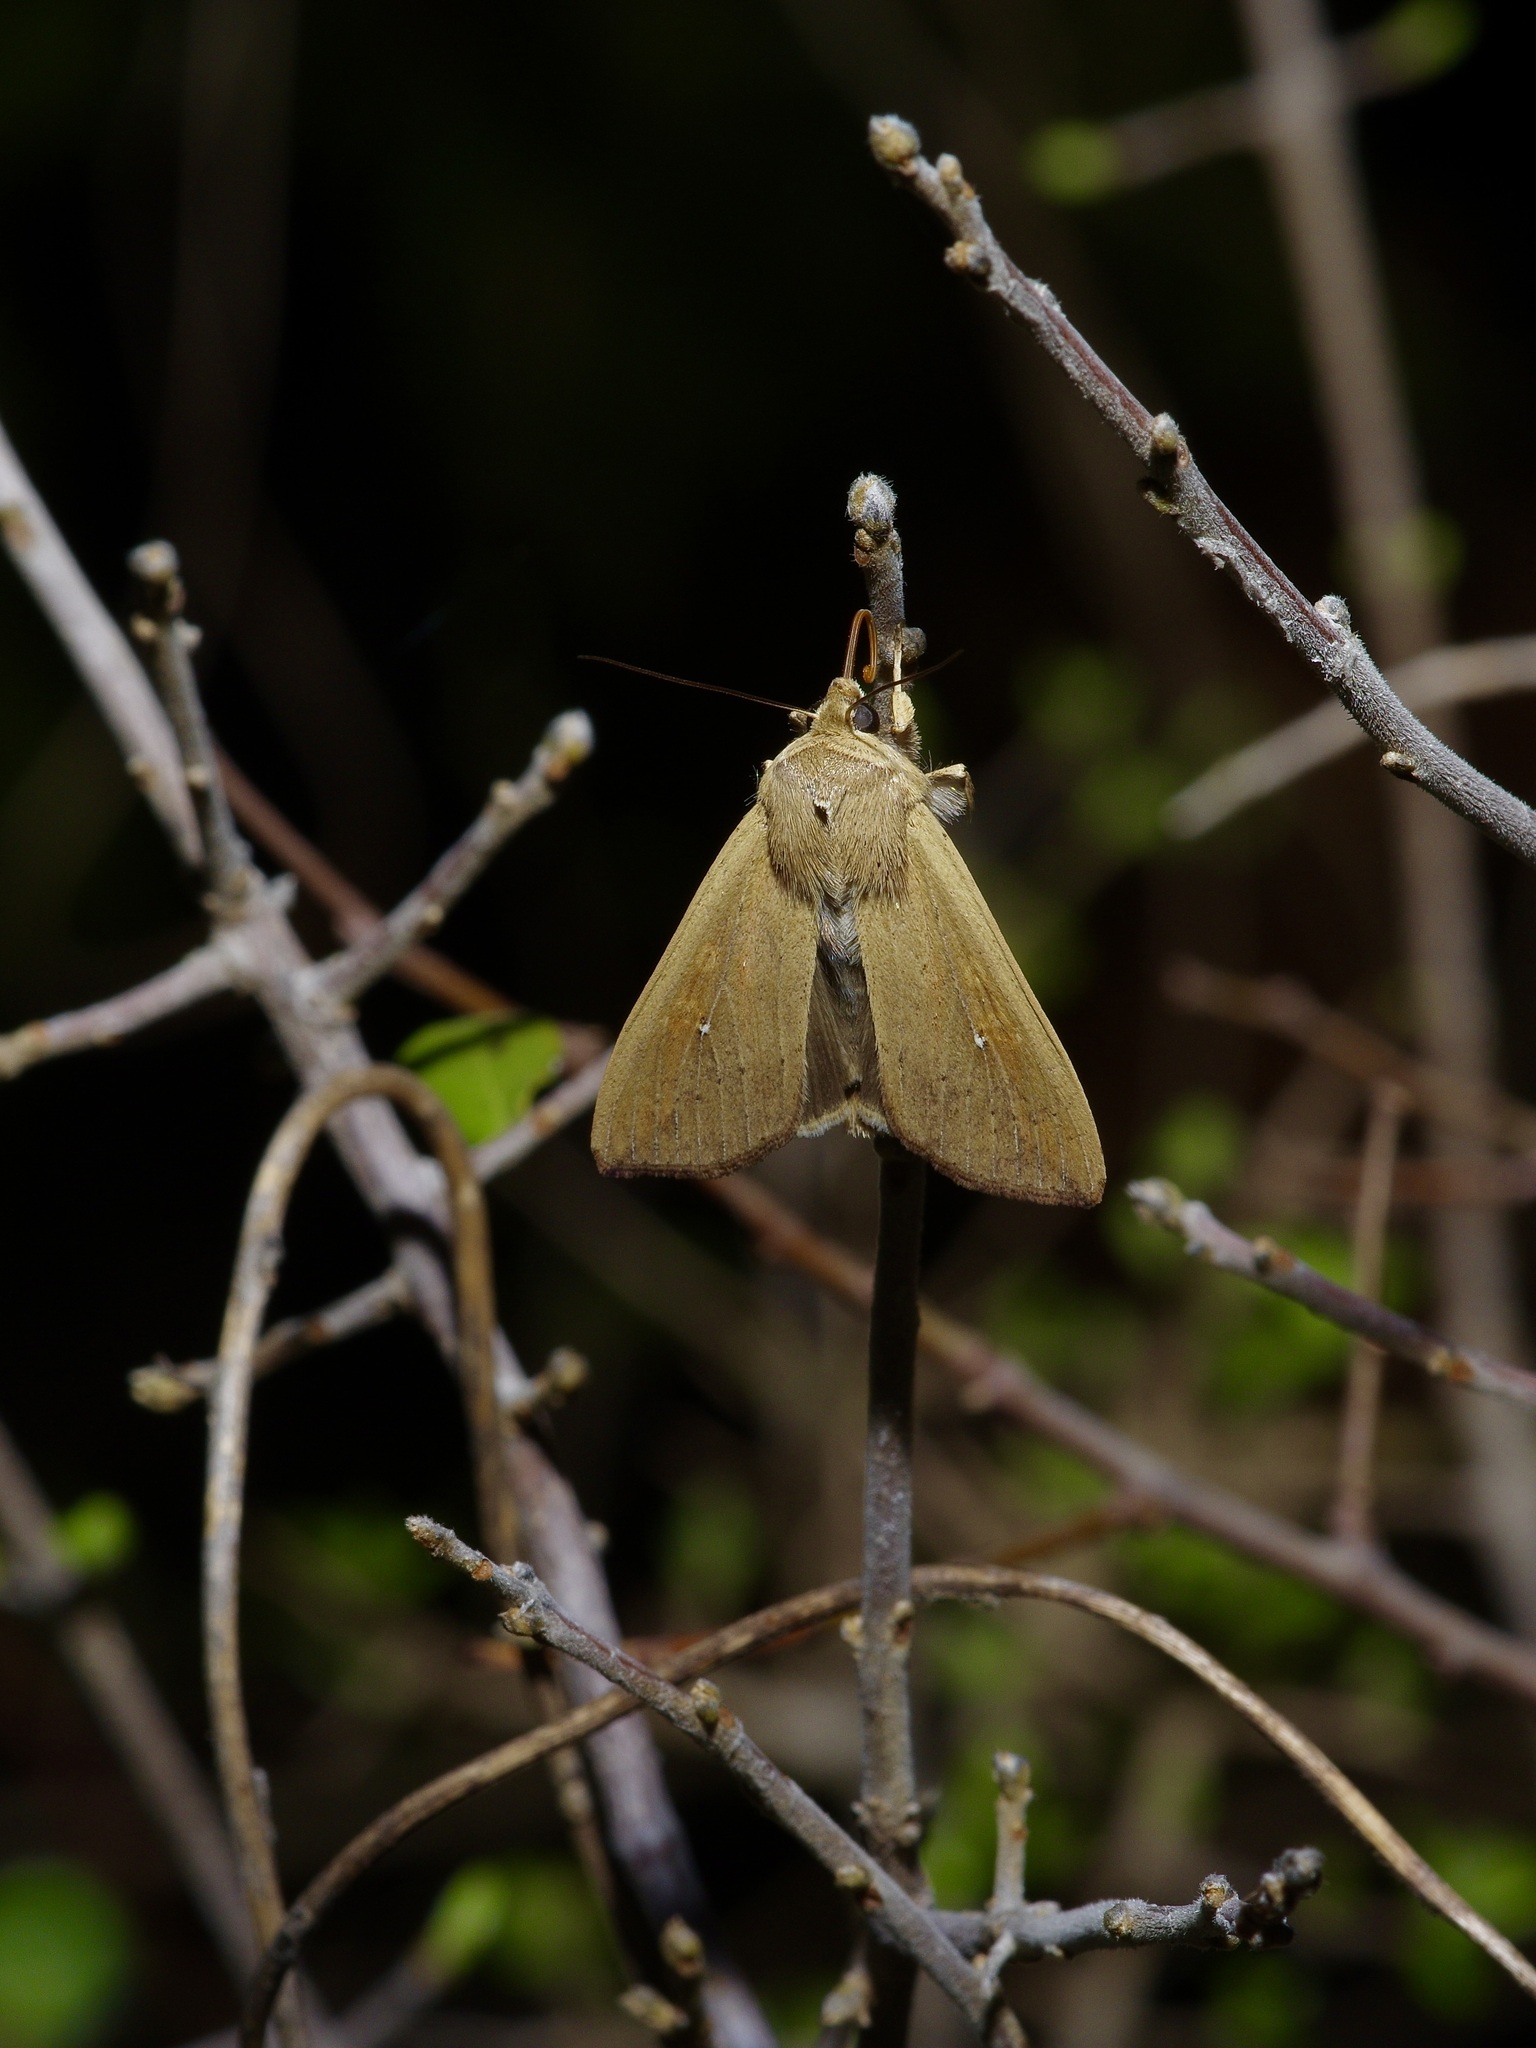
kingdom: Animalia
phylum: Arthropoda
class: Insecta
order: Lepidoptera
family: Noctuidae
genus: Mythimna
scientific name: Mythimna unipuncta
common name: White-speck
